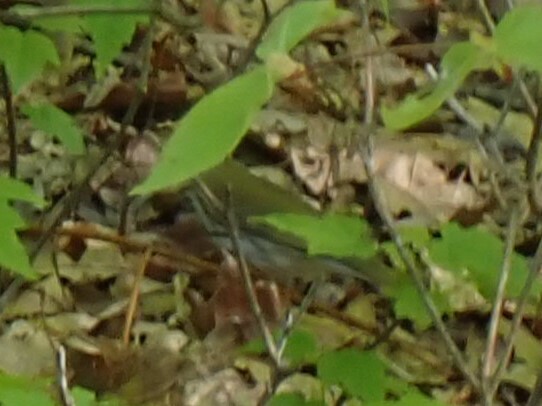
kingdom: Animalia
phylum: Chordata
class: Aves
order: Passeriformes
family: Parulidae
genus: Seiurus
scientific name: Seiurus aurocapilla
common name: Ovenbird
